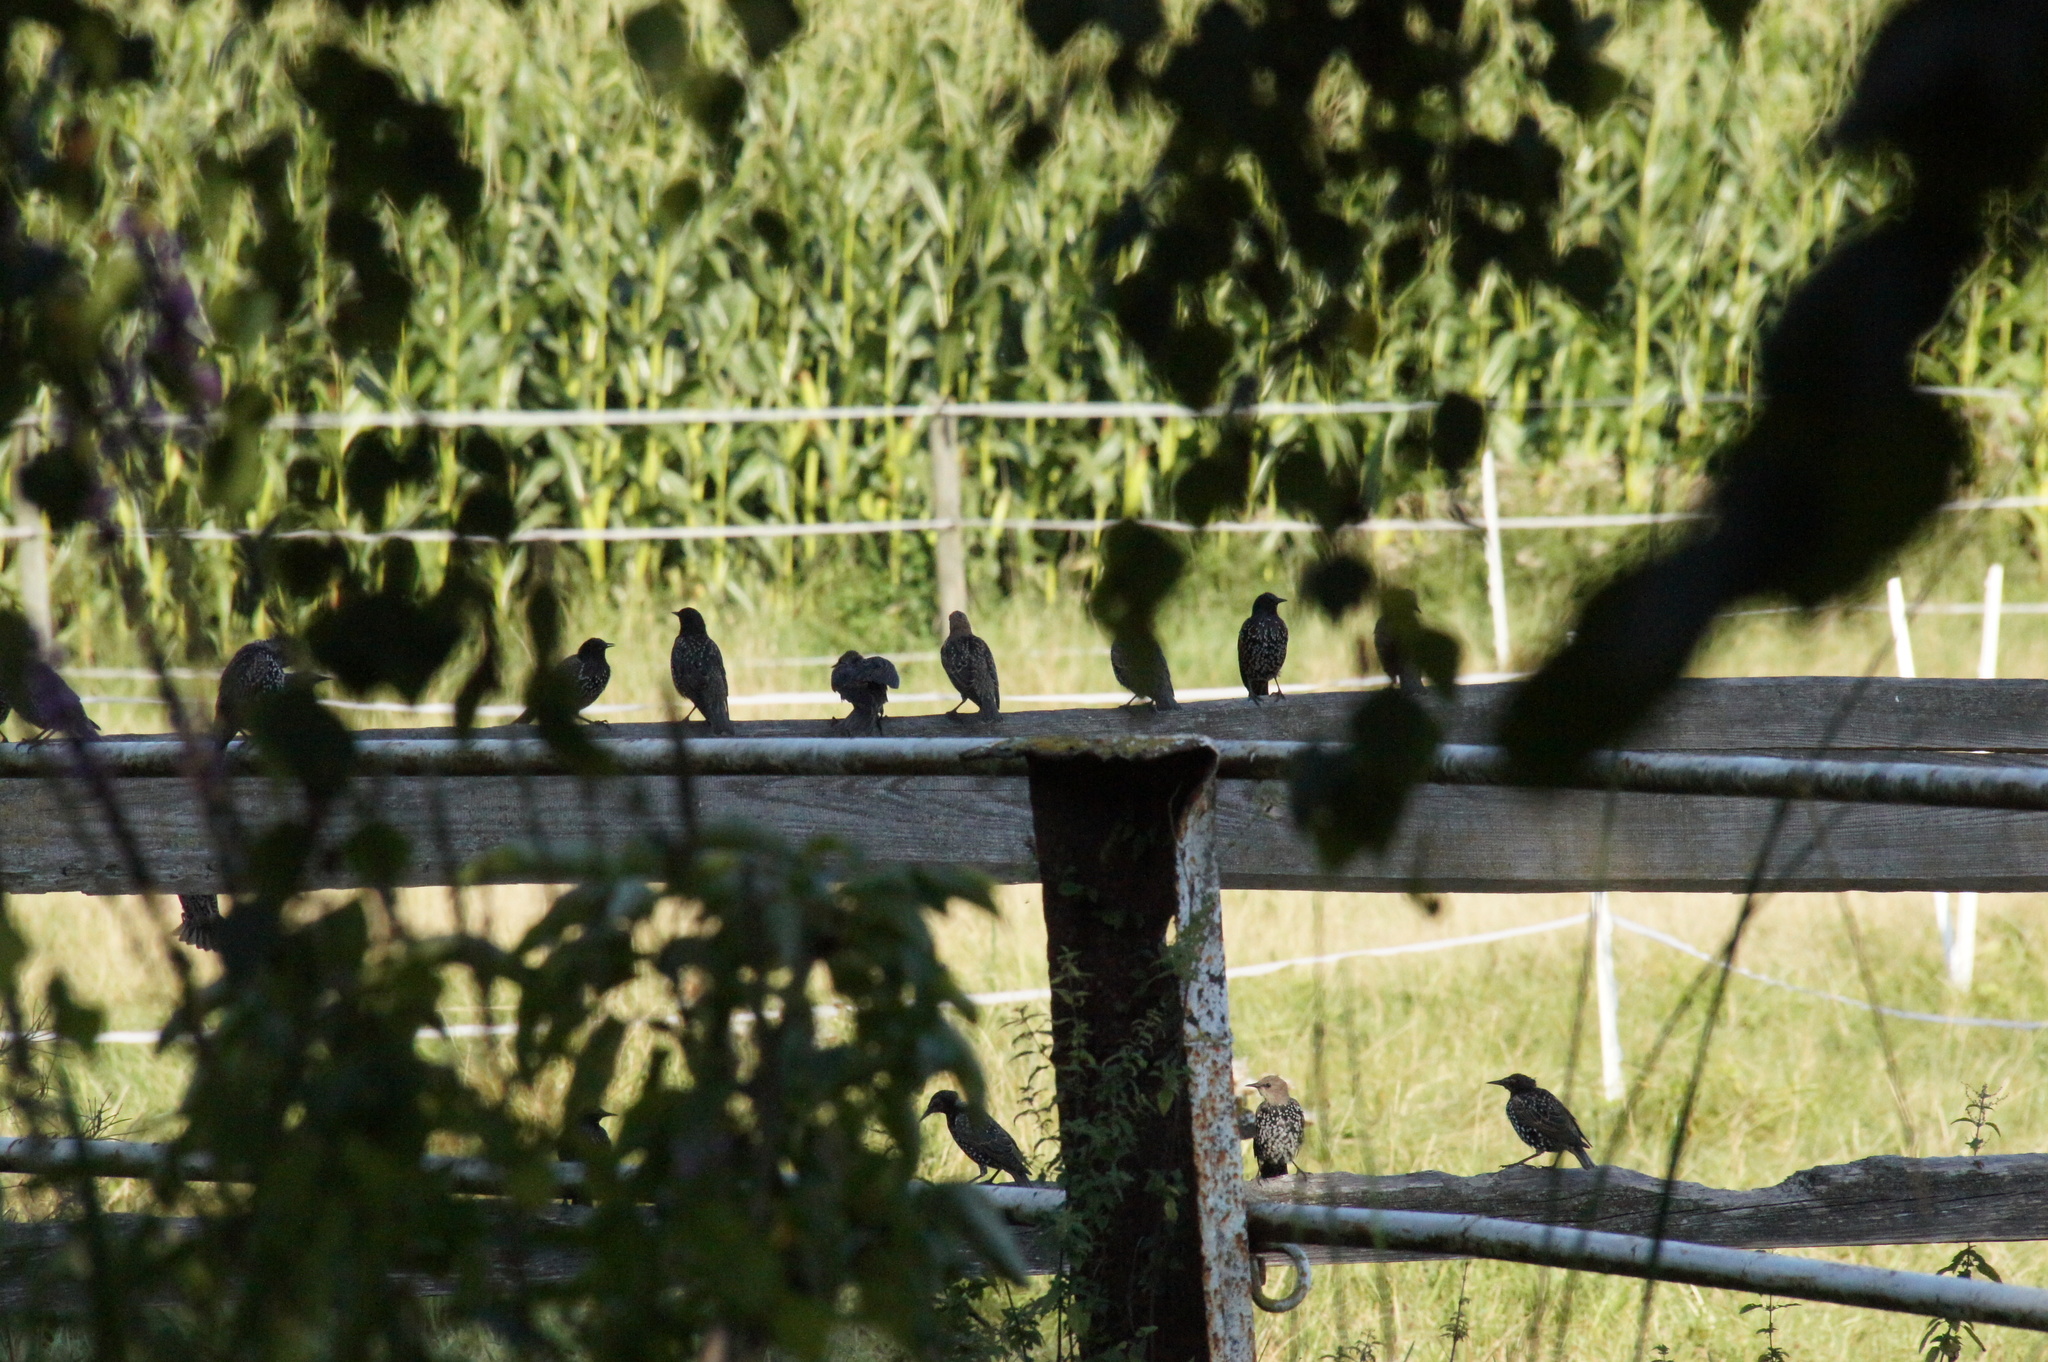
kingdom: Animalia
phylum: Chordata
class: Aves
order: Passeriformes
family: Sturnidae
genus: Sturnus
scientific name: Sturnus vulgaris
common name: Common starling
